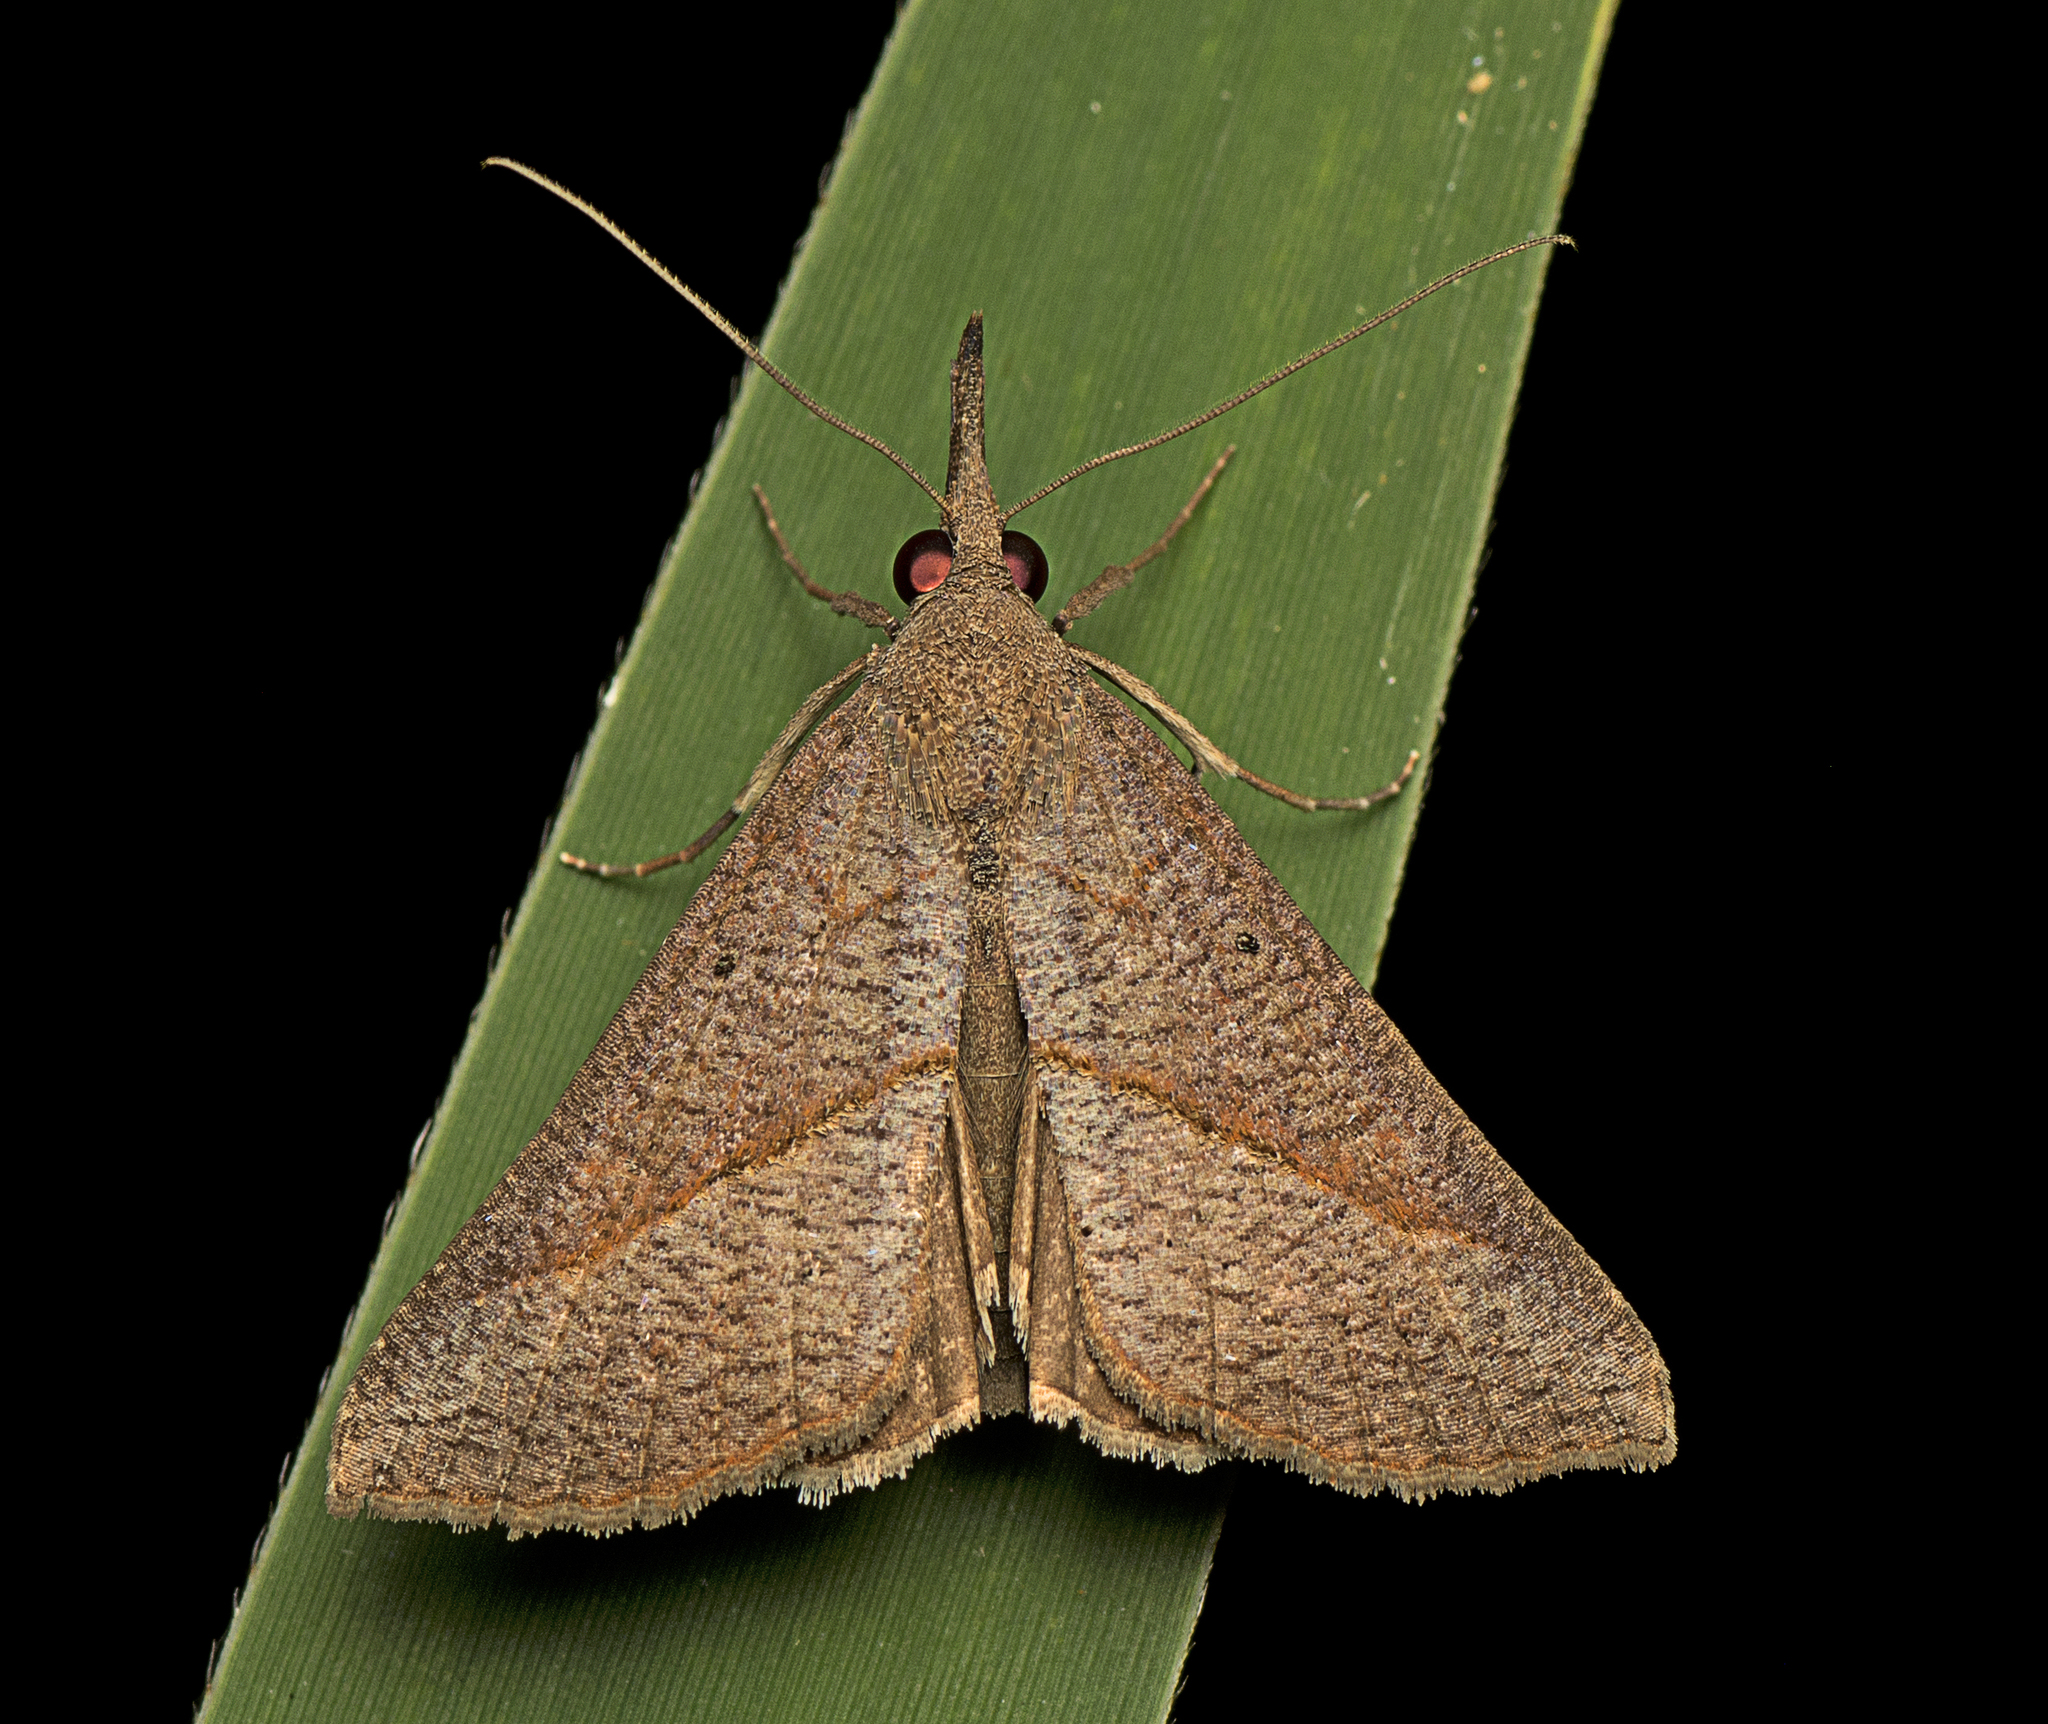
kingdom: Animalia
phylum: Arthropoda
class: Insecta
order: Lepidoptera
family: Erebidae
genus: Hypena
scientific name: Hypena lividalis
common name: Chevron snout
